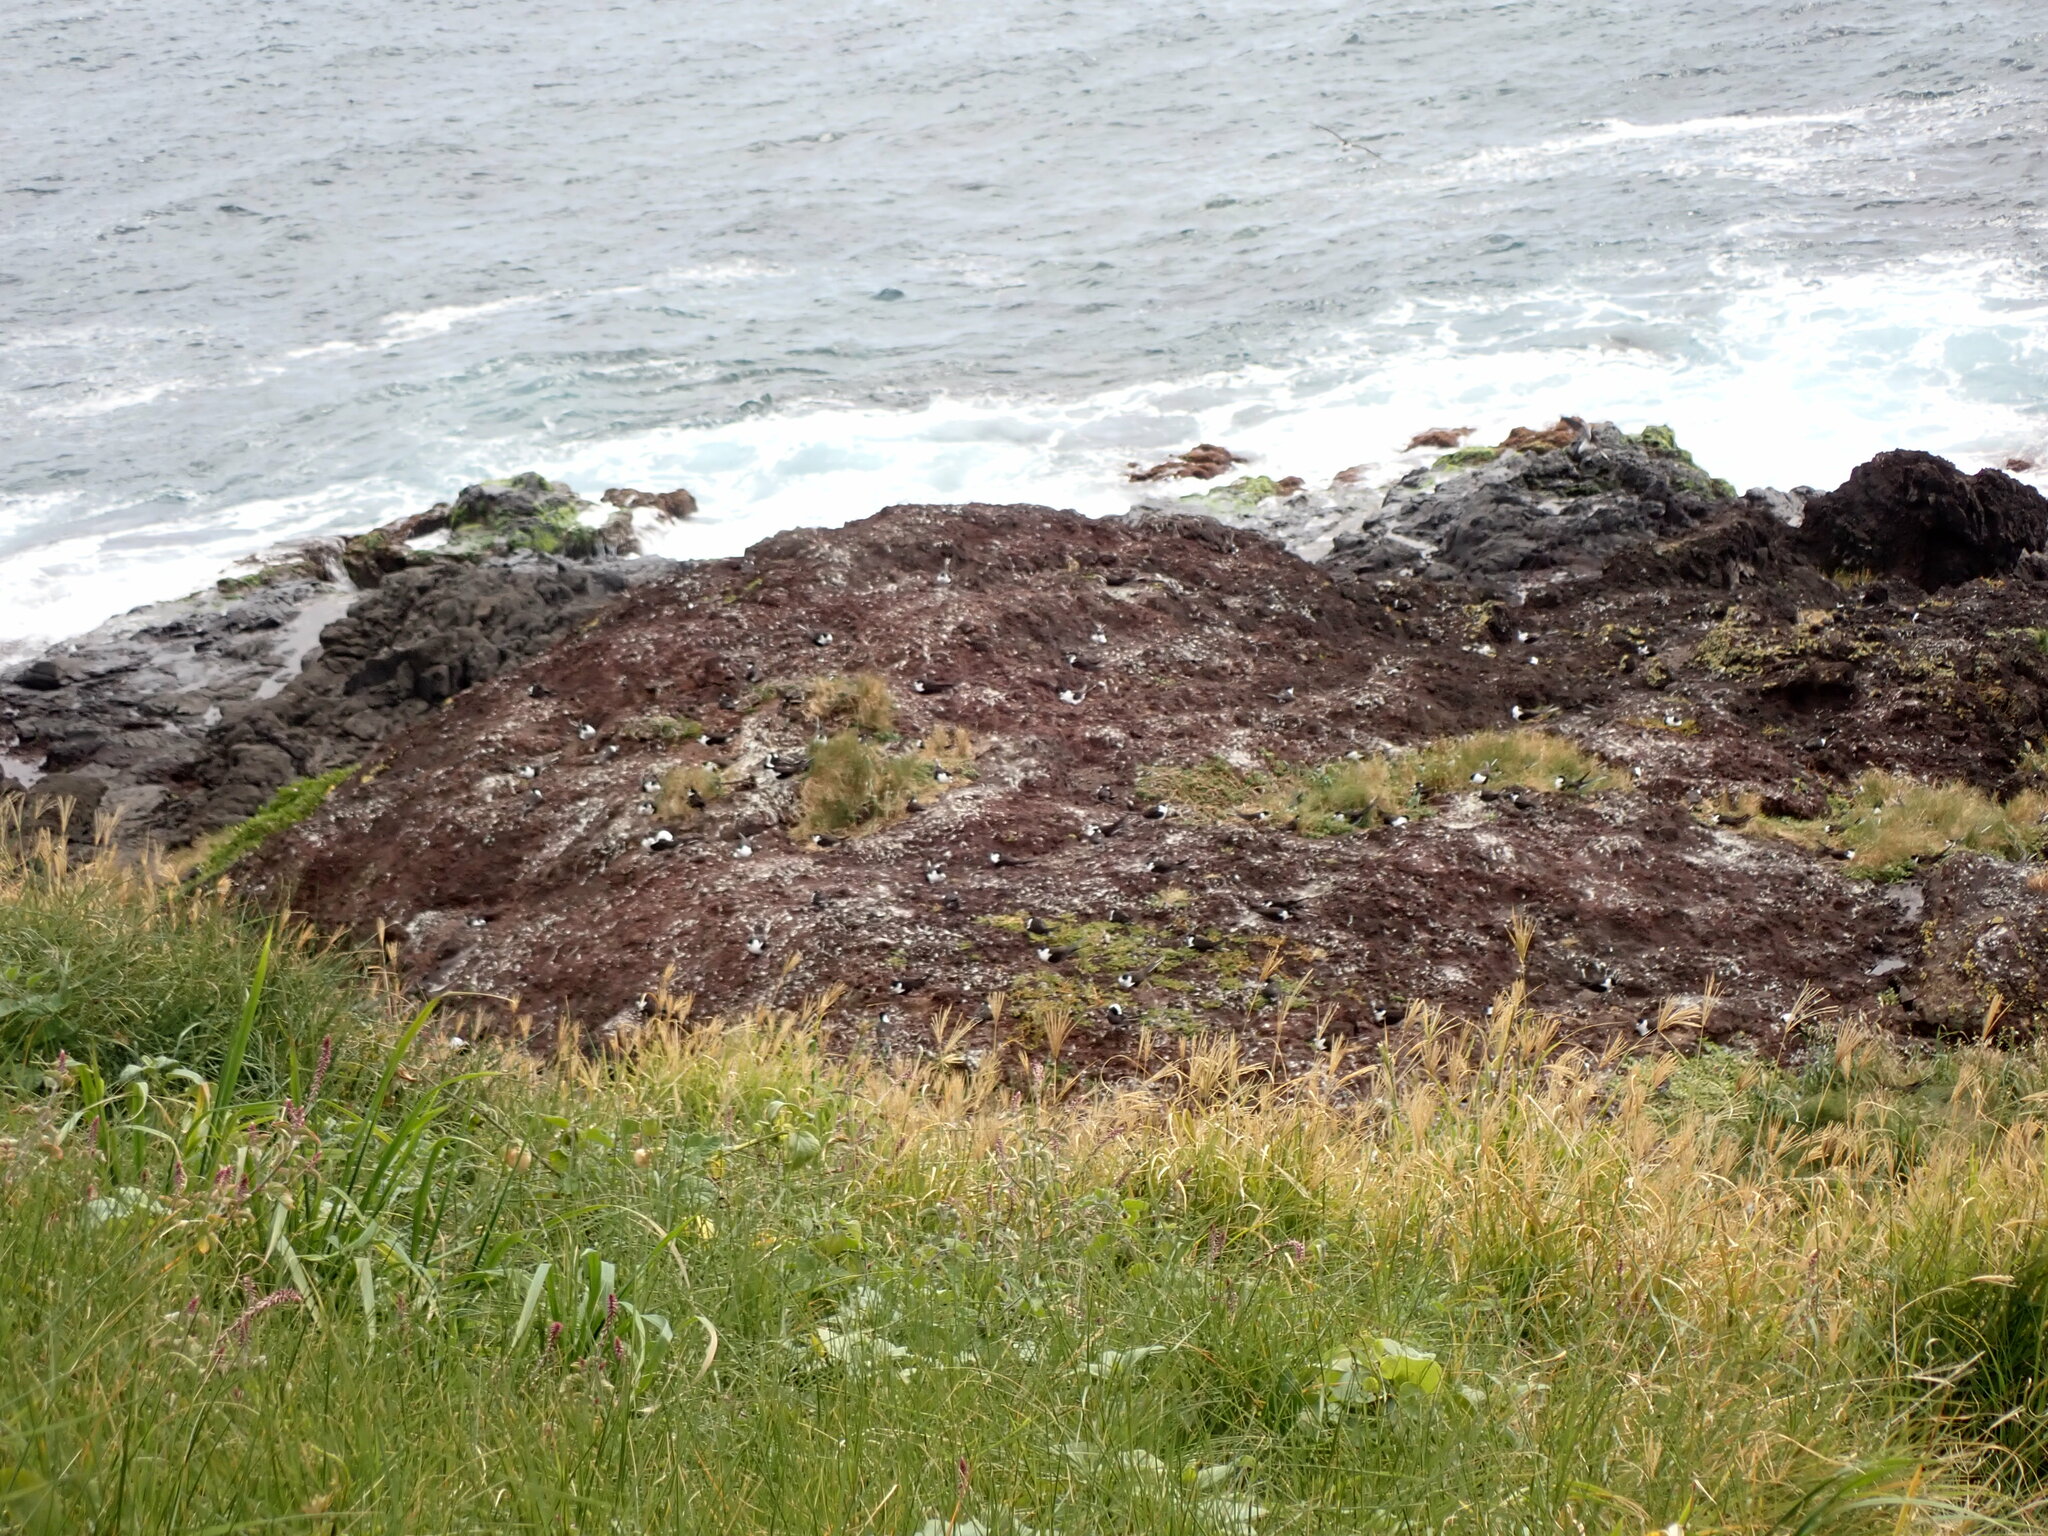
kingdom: Animalia
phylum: Chordata
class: Aves
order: Charadriiformes
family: Laridae
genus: Onychoprion
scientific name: Onychoprion fuscatus
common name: Sooty tern
